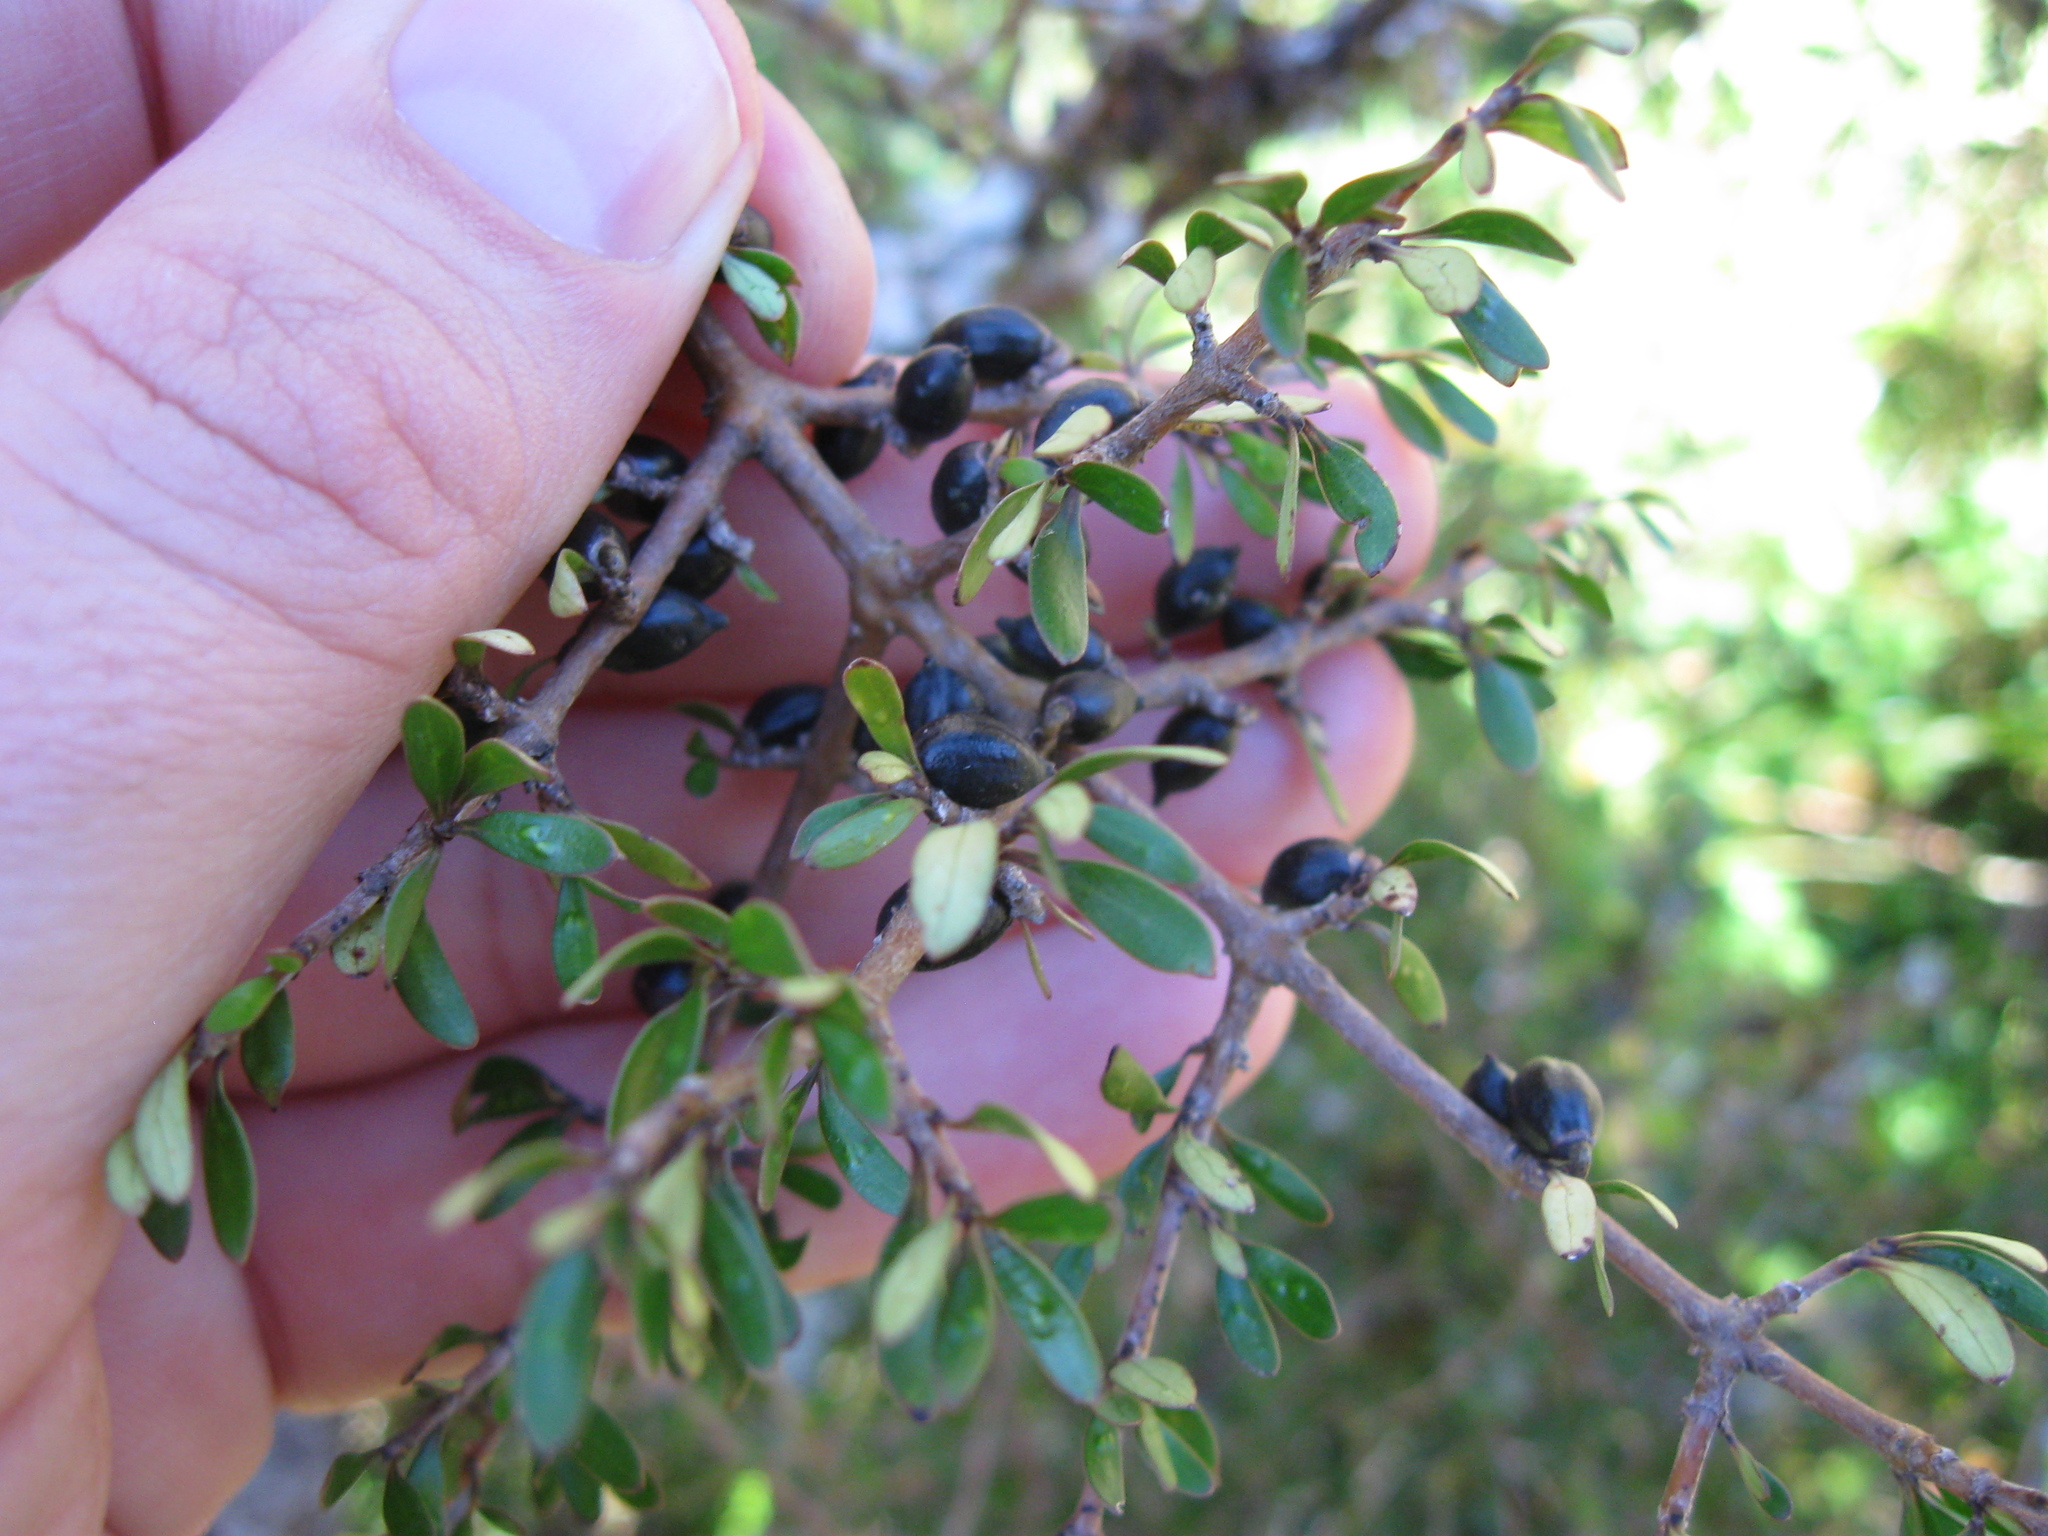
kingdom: Plantae
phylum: Tracheophyta
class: Magnoliopsida
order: Gentianales
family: Rubiaceae
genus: Coprosma
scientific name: Coprosma propinqua
